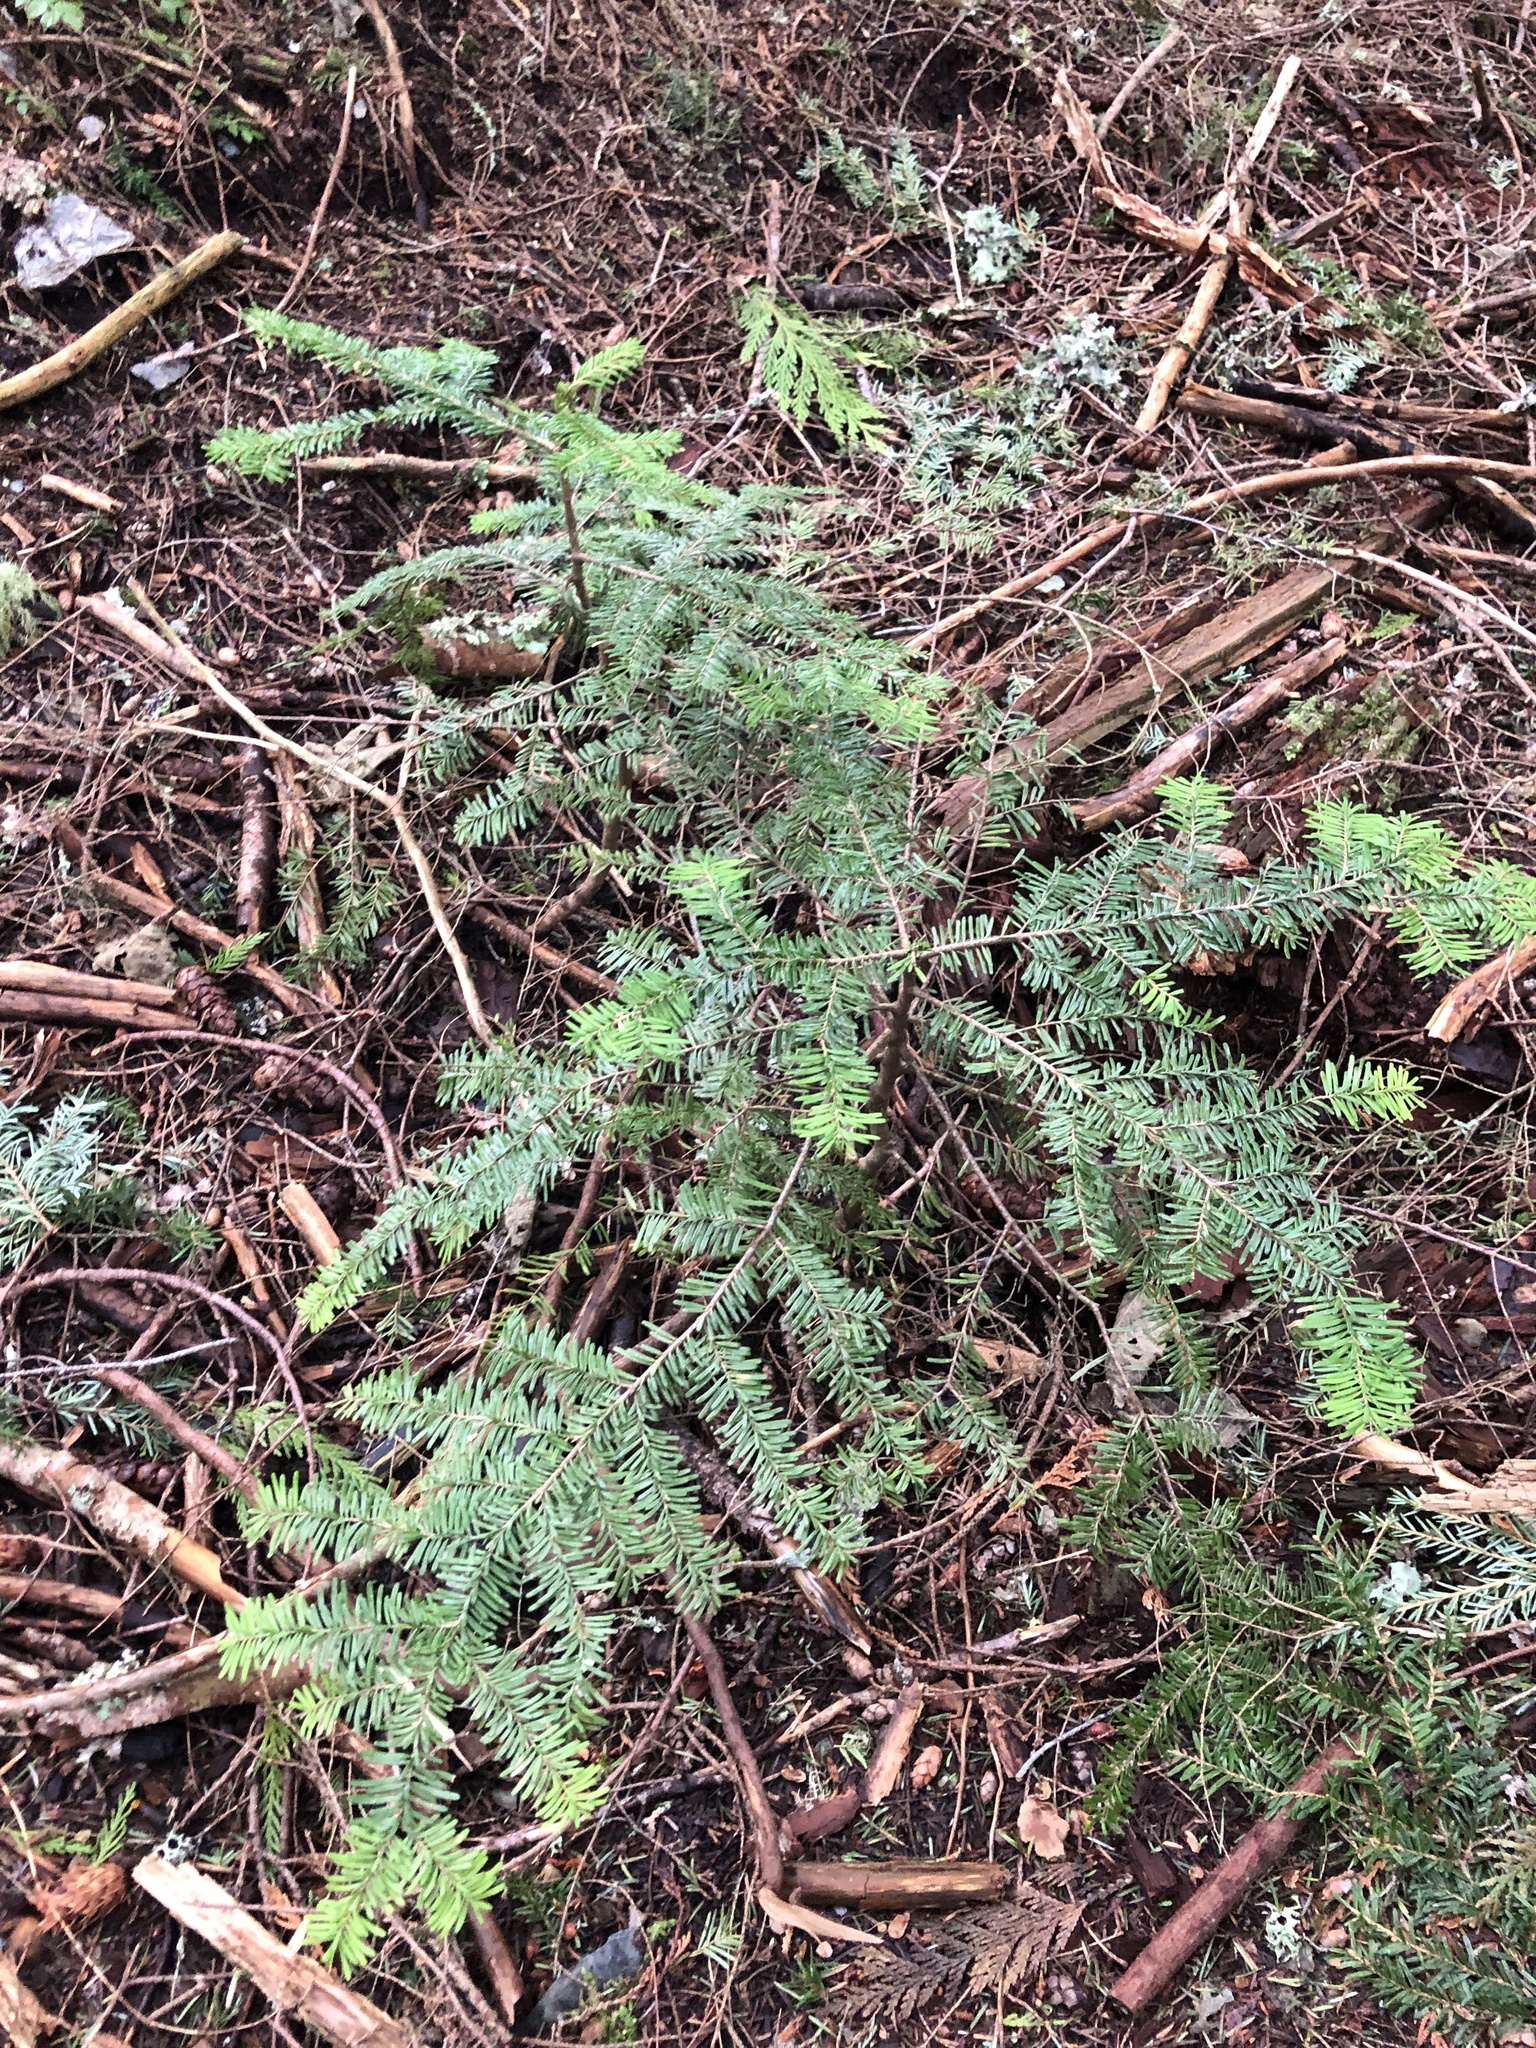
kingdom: Plantae
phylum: Tracheophyta
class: Pinopsida
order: Pinales
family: Pinaceae
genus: Abies
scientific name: Abies amabilis
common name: Pacific silver fir
